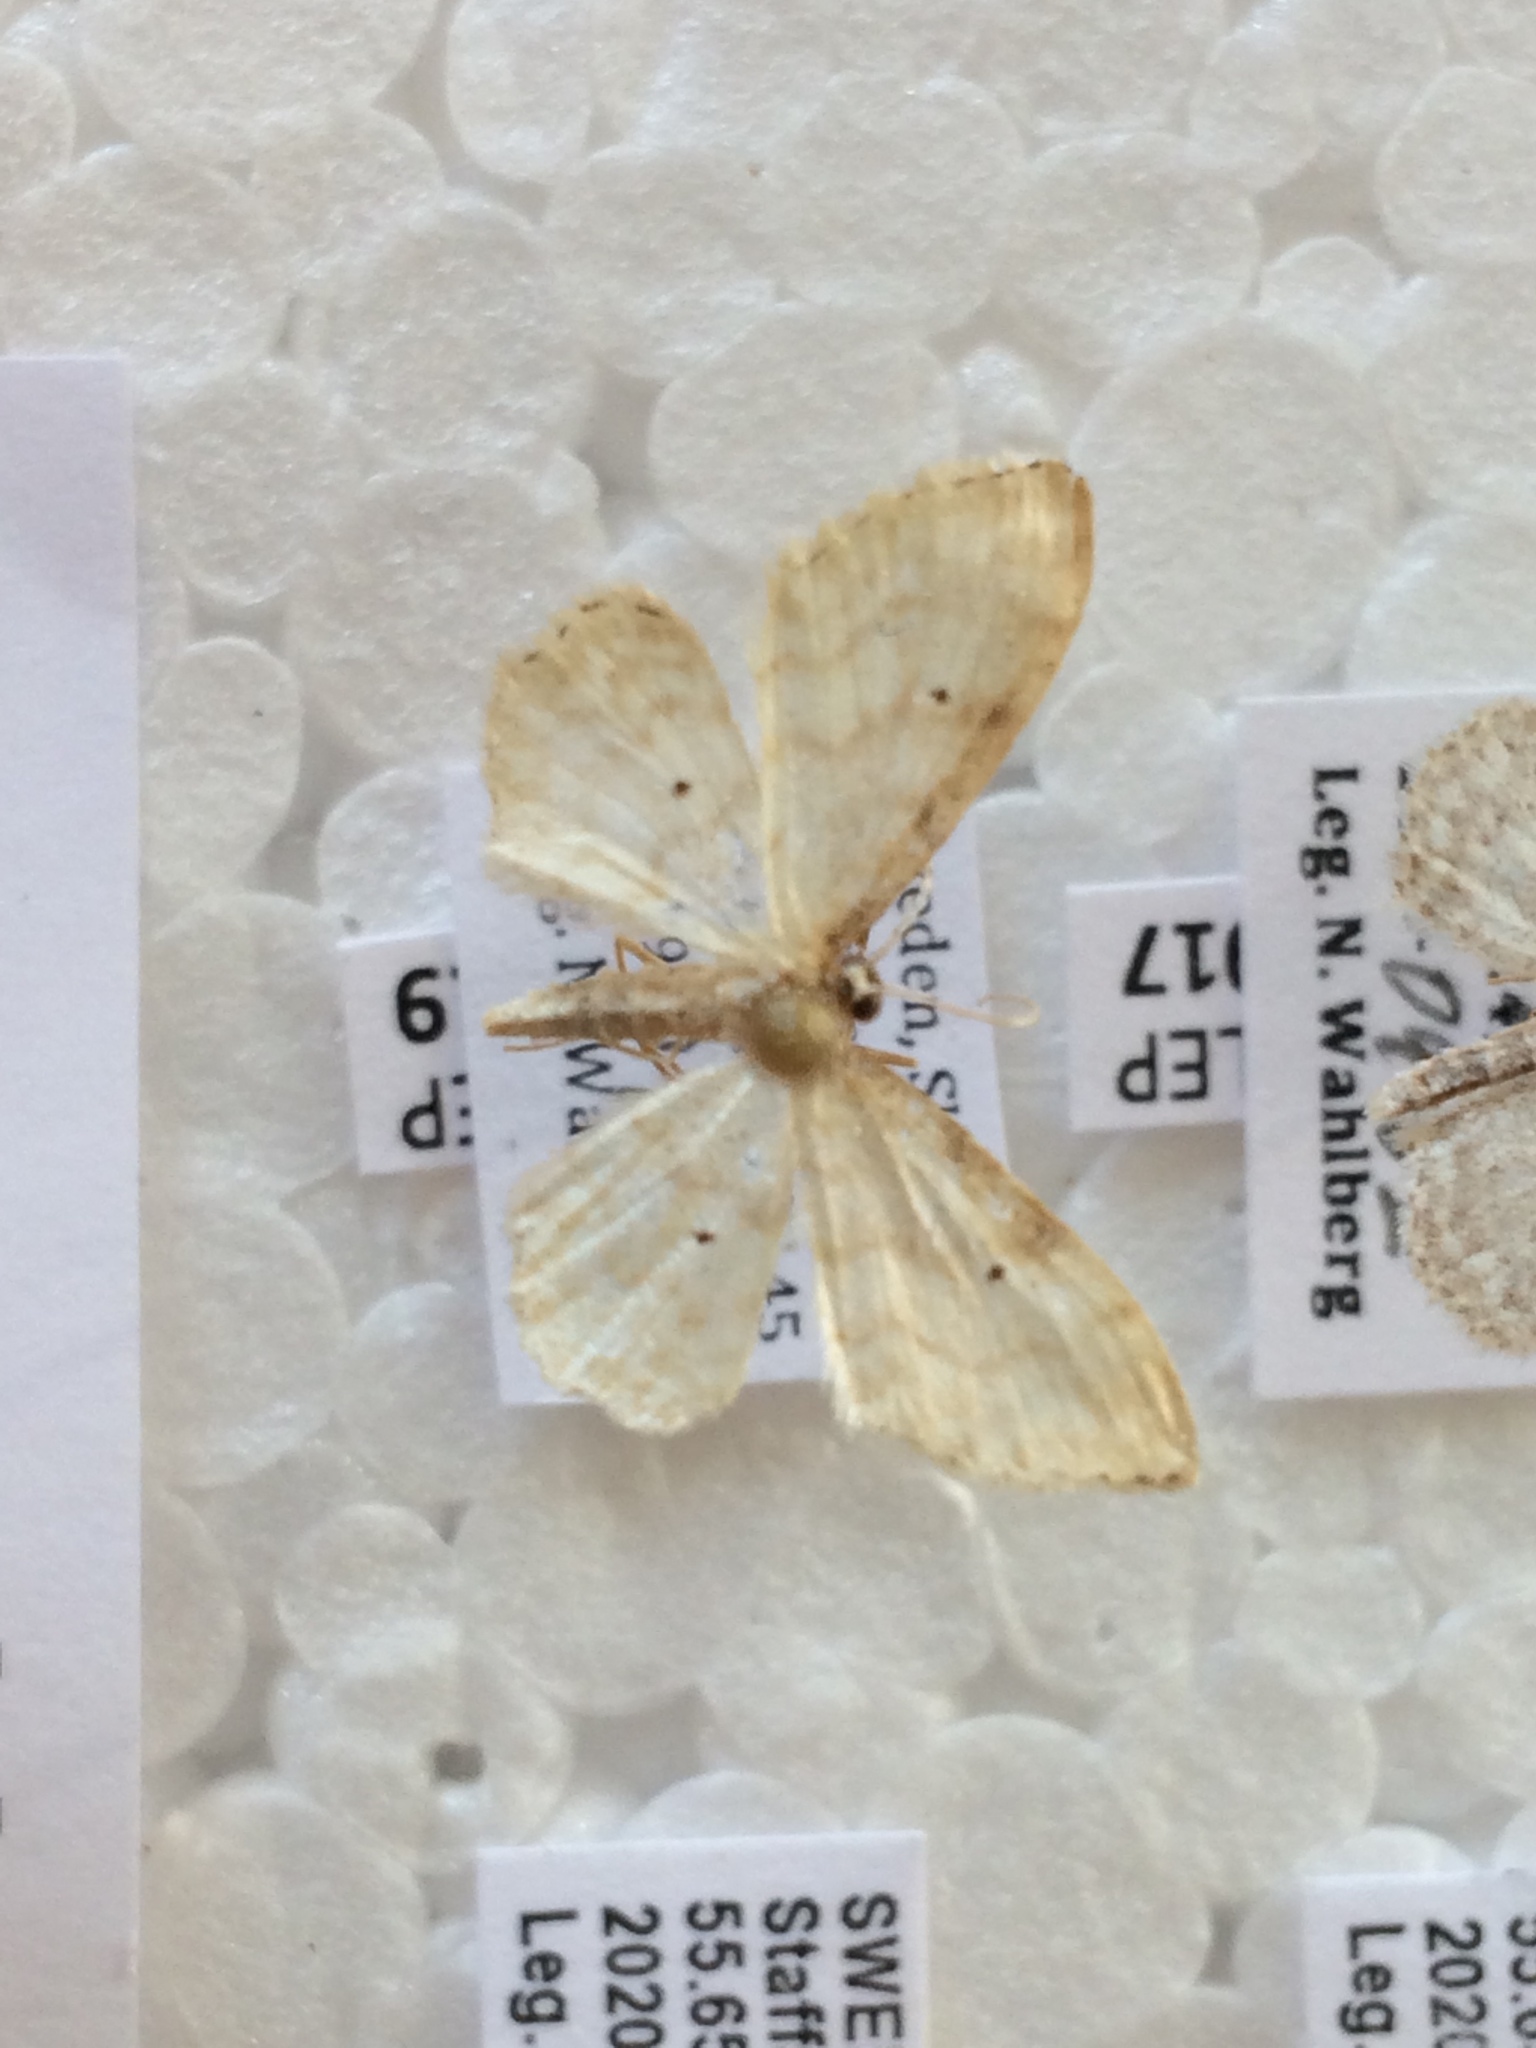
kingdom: Animalia
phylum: Arthropoda
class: Insecta
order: Lepidoptera
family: Geometridae
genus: Idaea
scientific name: Idaea fuscovenosa
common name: Dwarf cream wave
